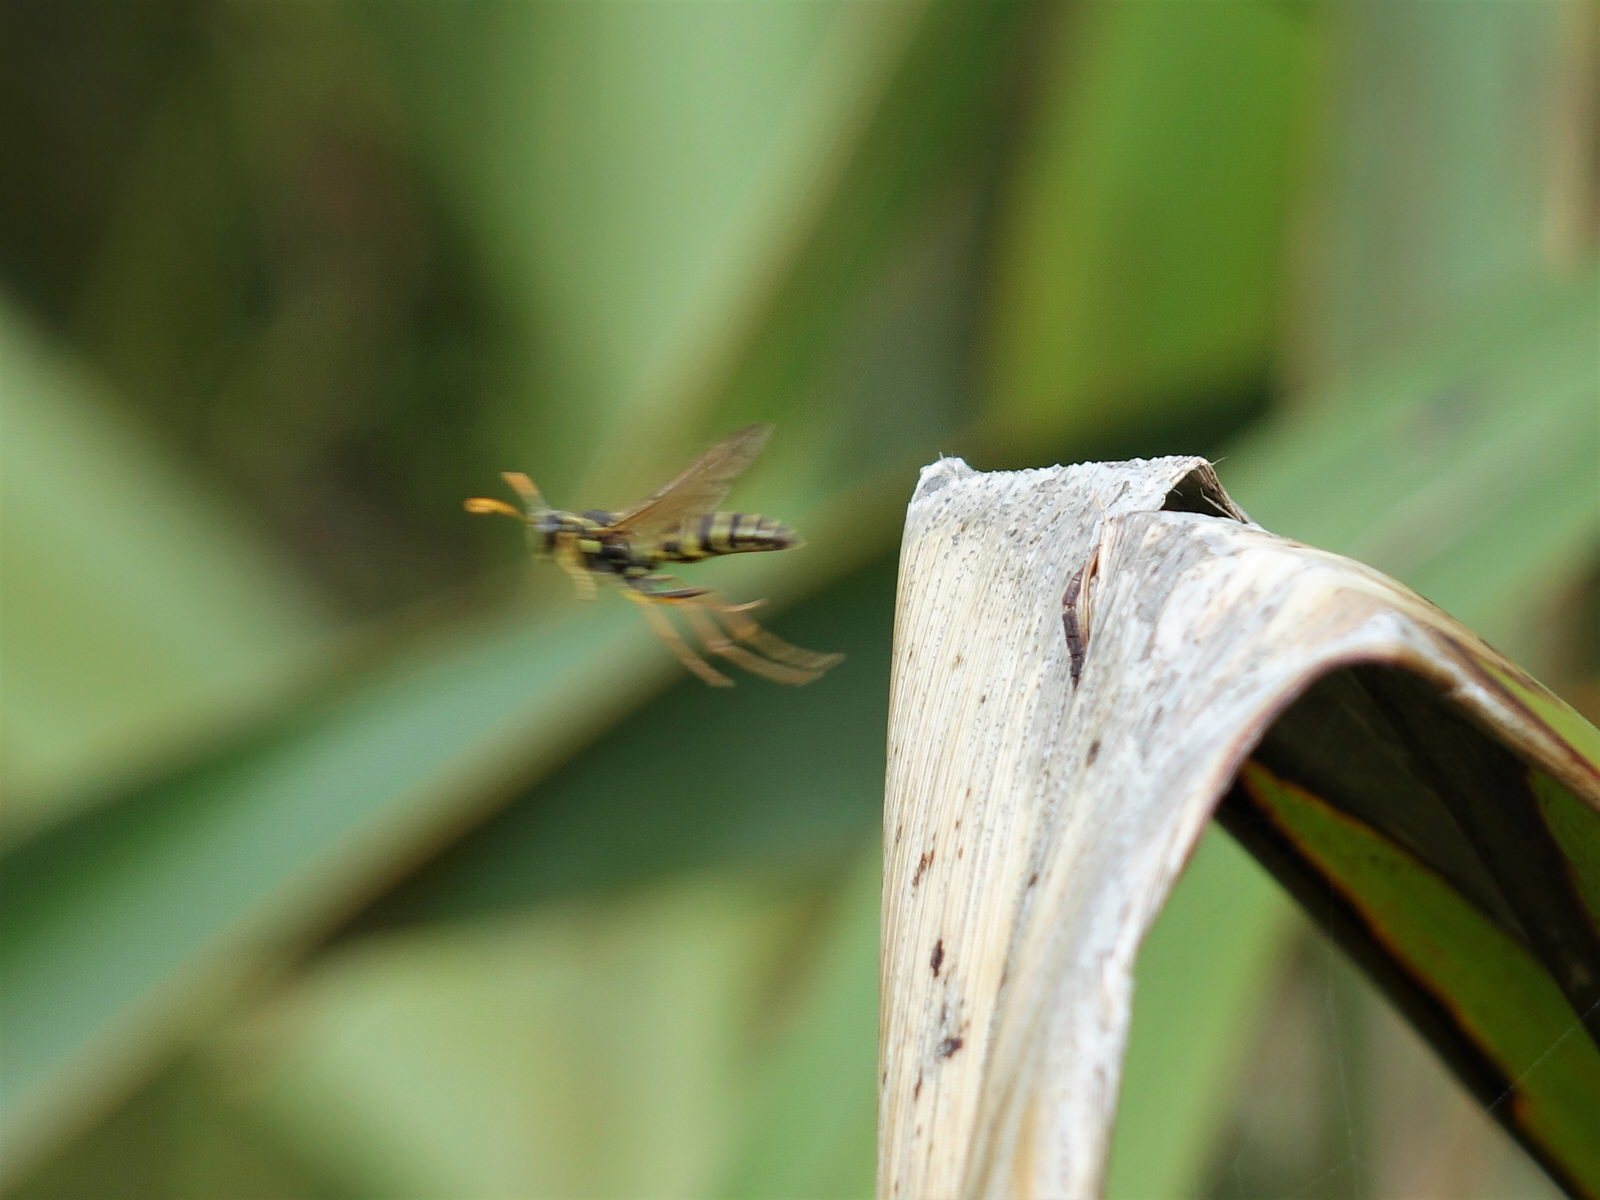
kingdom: Animalia
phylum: Arthropoda
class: Insecta
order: Hymenoptera
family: Eumenidae
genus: Polistes
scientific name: Polistes chinensis
